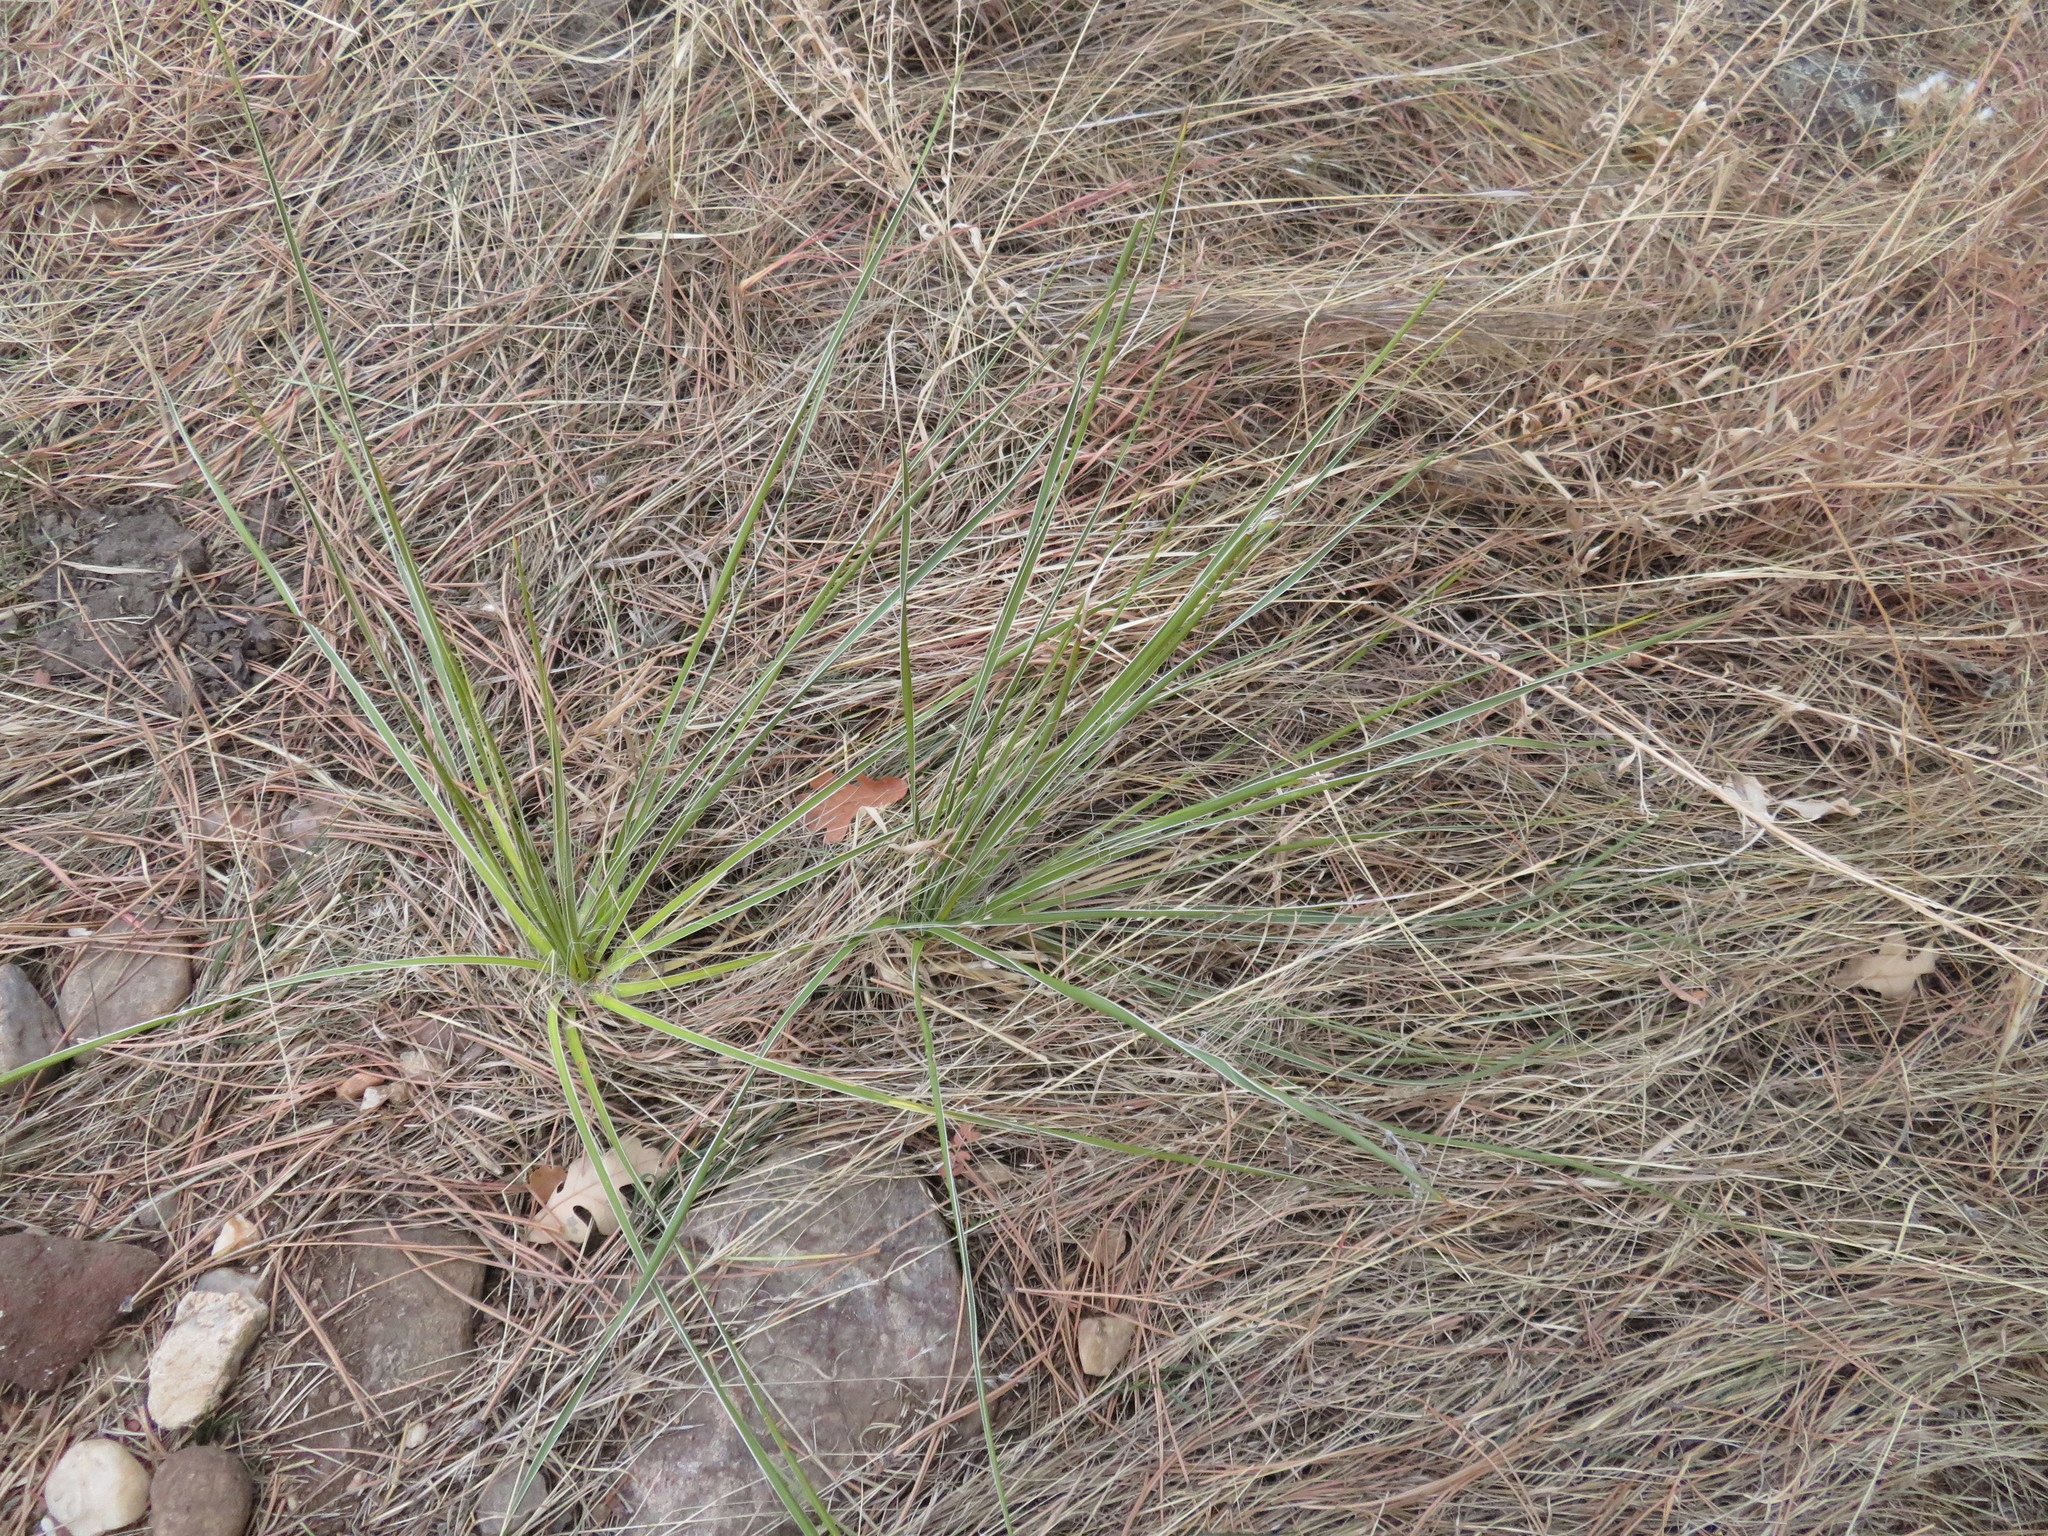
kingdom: Plantae
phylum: Tracheophyta
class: Liliopsida
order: Asparagales
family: Asparagaceae
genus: Yucca
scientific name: Yucca glauca
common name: Great plains yucca
